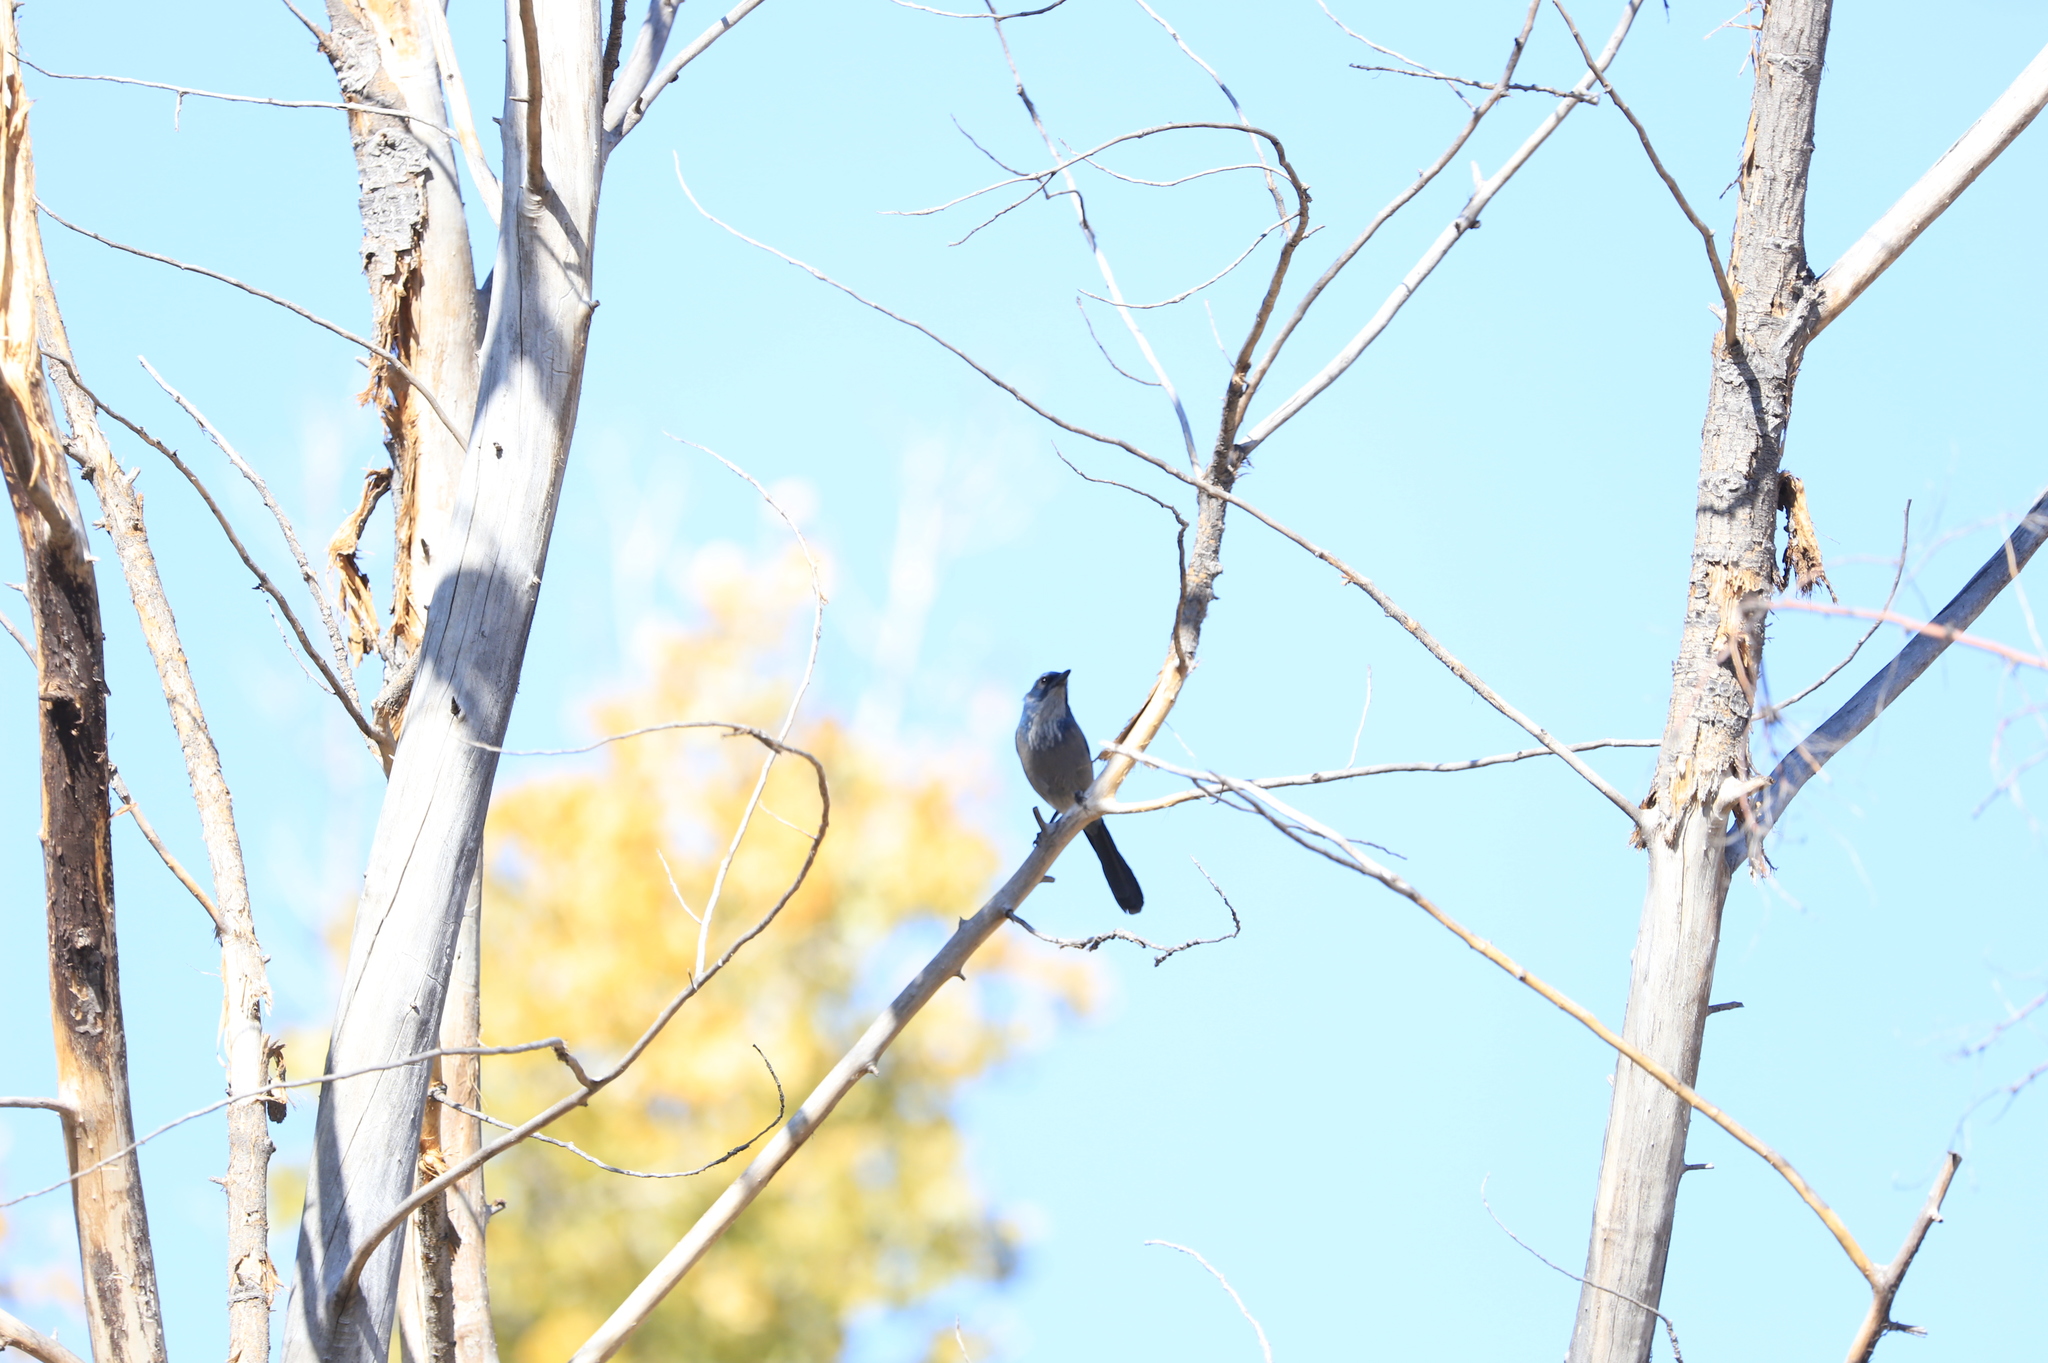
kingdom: Animalia
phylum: Chordata
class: Aves
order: Passeriformes
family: Corvidae
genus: Aphelocoma
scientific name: Aphelocoma woodhouseii
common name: Woodhouse's scrub-jay
